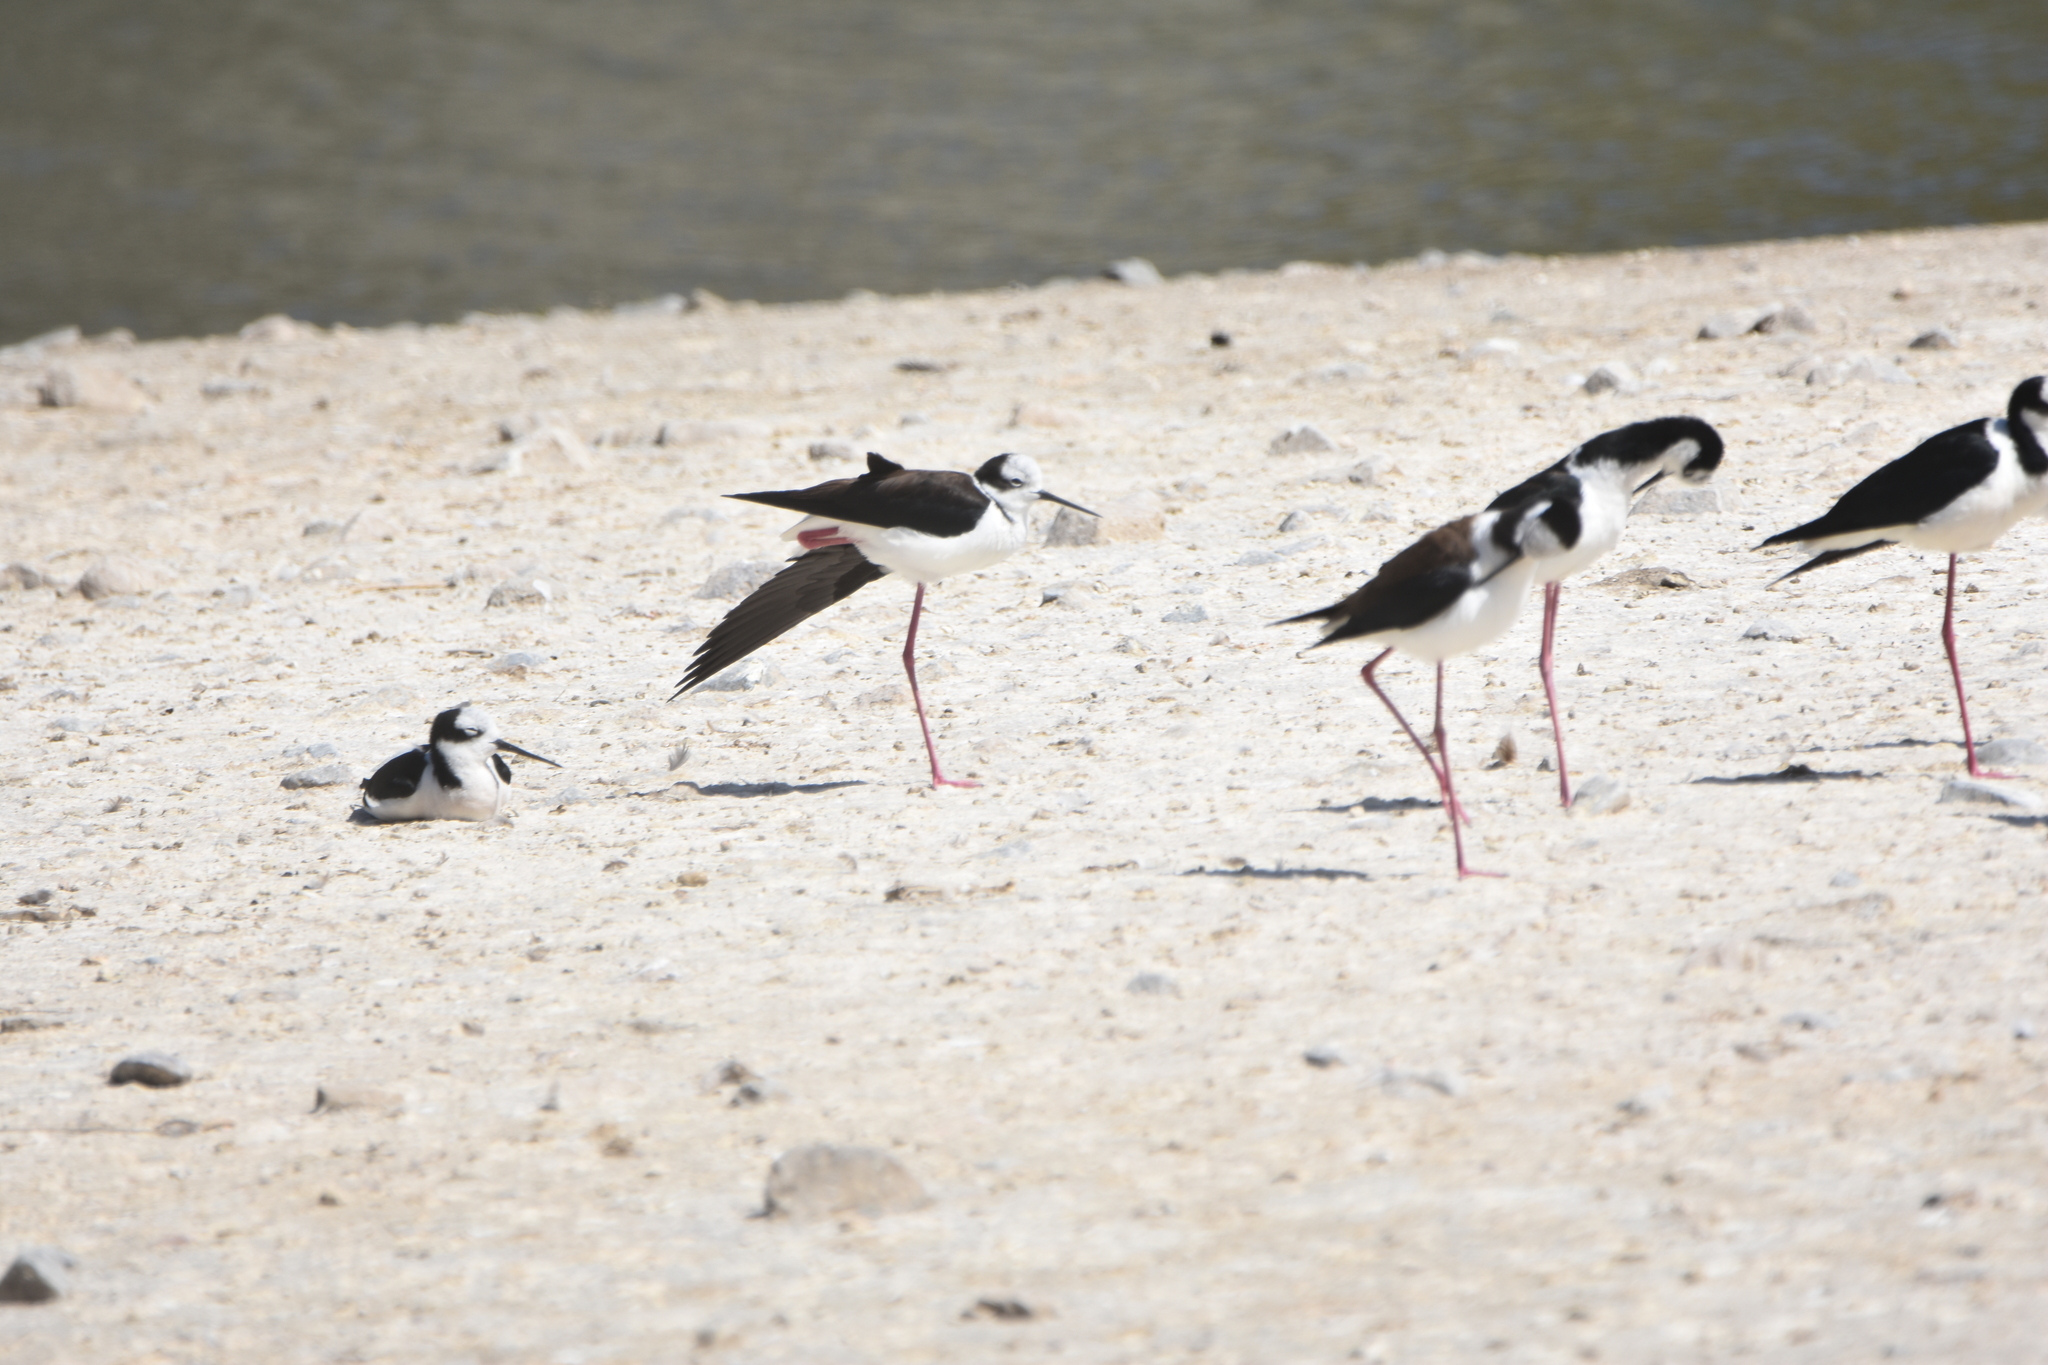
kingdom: Animalia
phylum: Chordata
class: Aves
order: Charadriiformes
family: Recurvirostridae
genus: Himantopus
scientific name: Himantopus mexicanus
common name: Black-necked stilt
